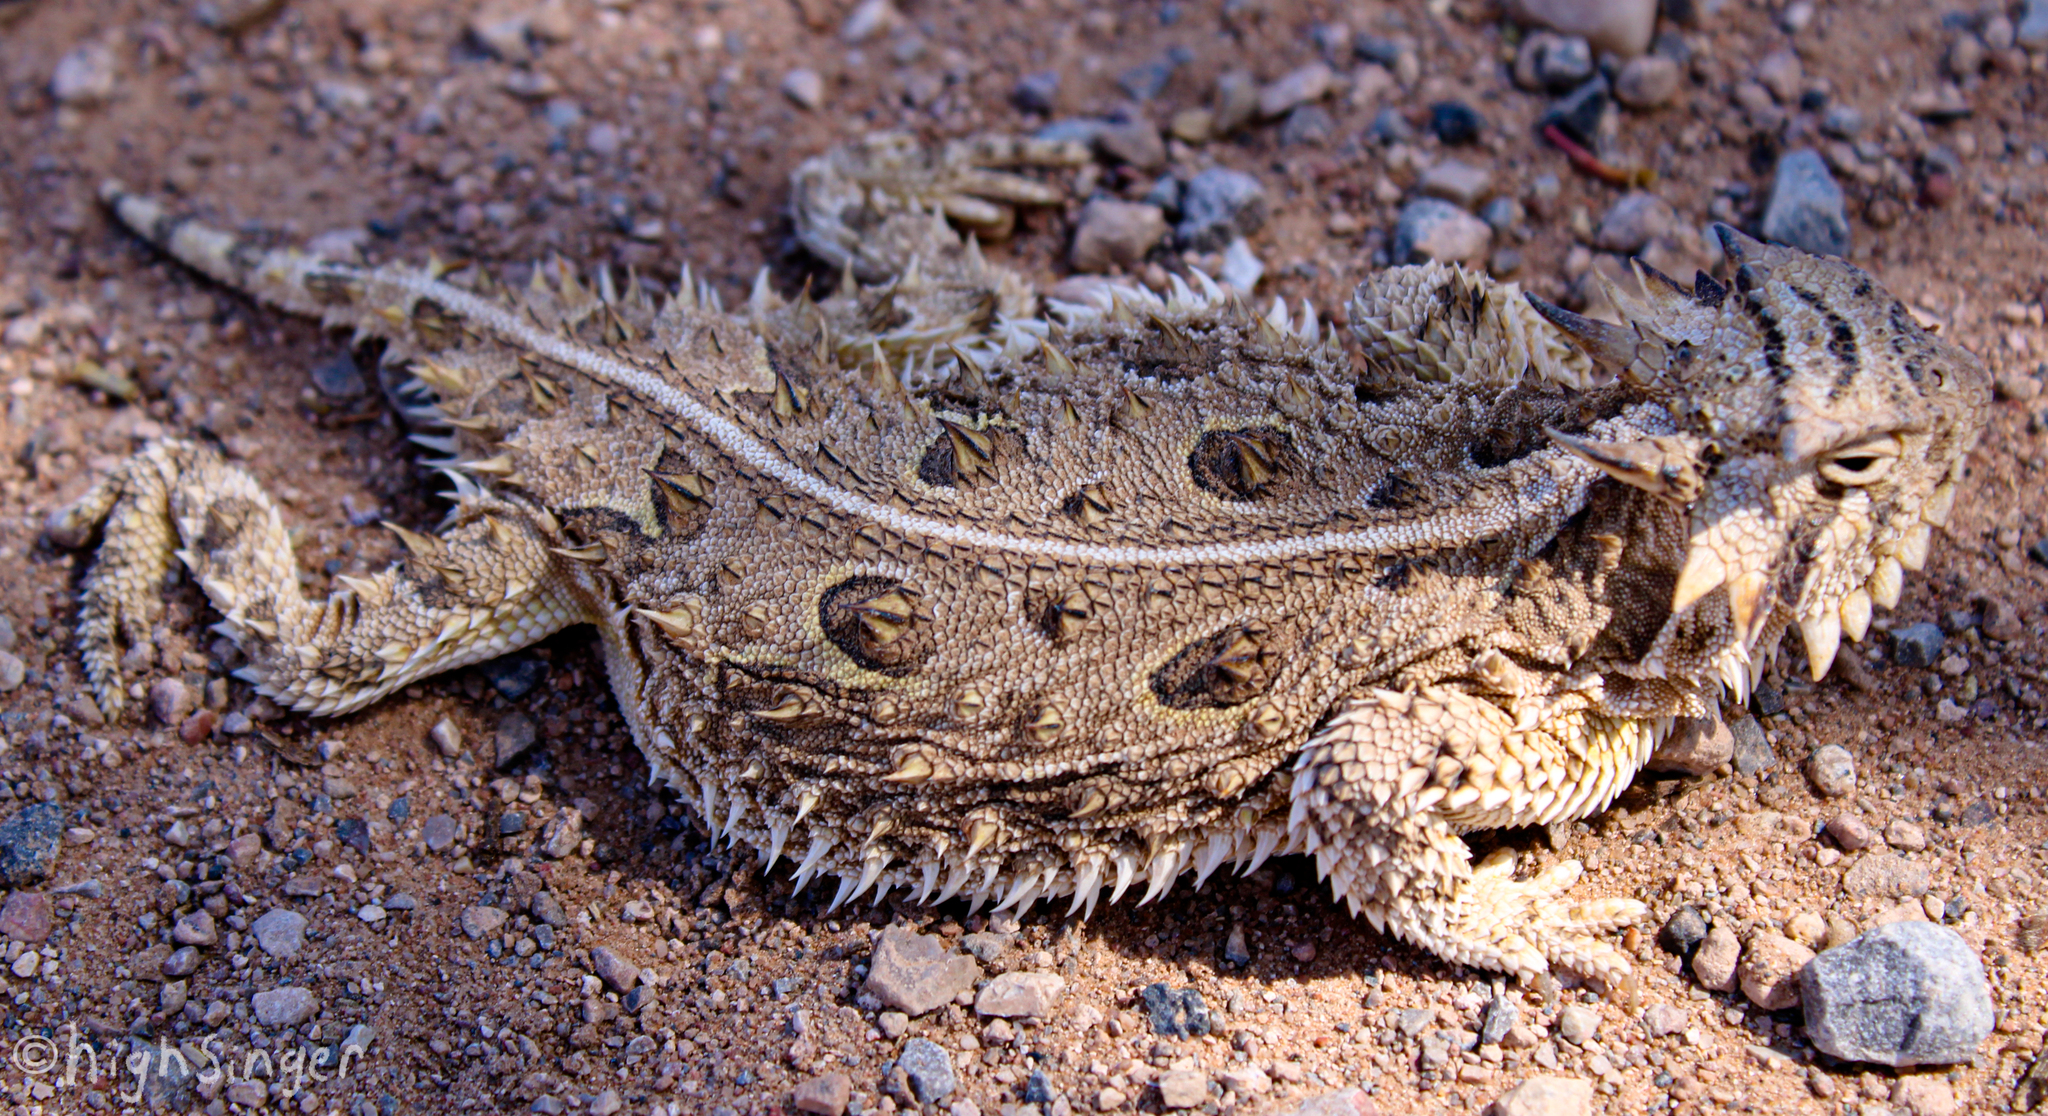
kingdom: Animalia
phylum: Chordata
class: Squamata
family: Phrynosomatidae
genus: Phrynosoma
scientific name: Phrynosoma cornutum
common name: Texas horned lizard
